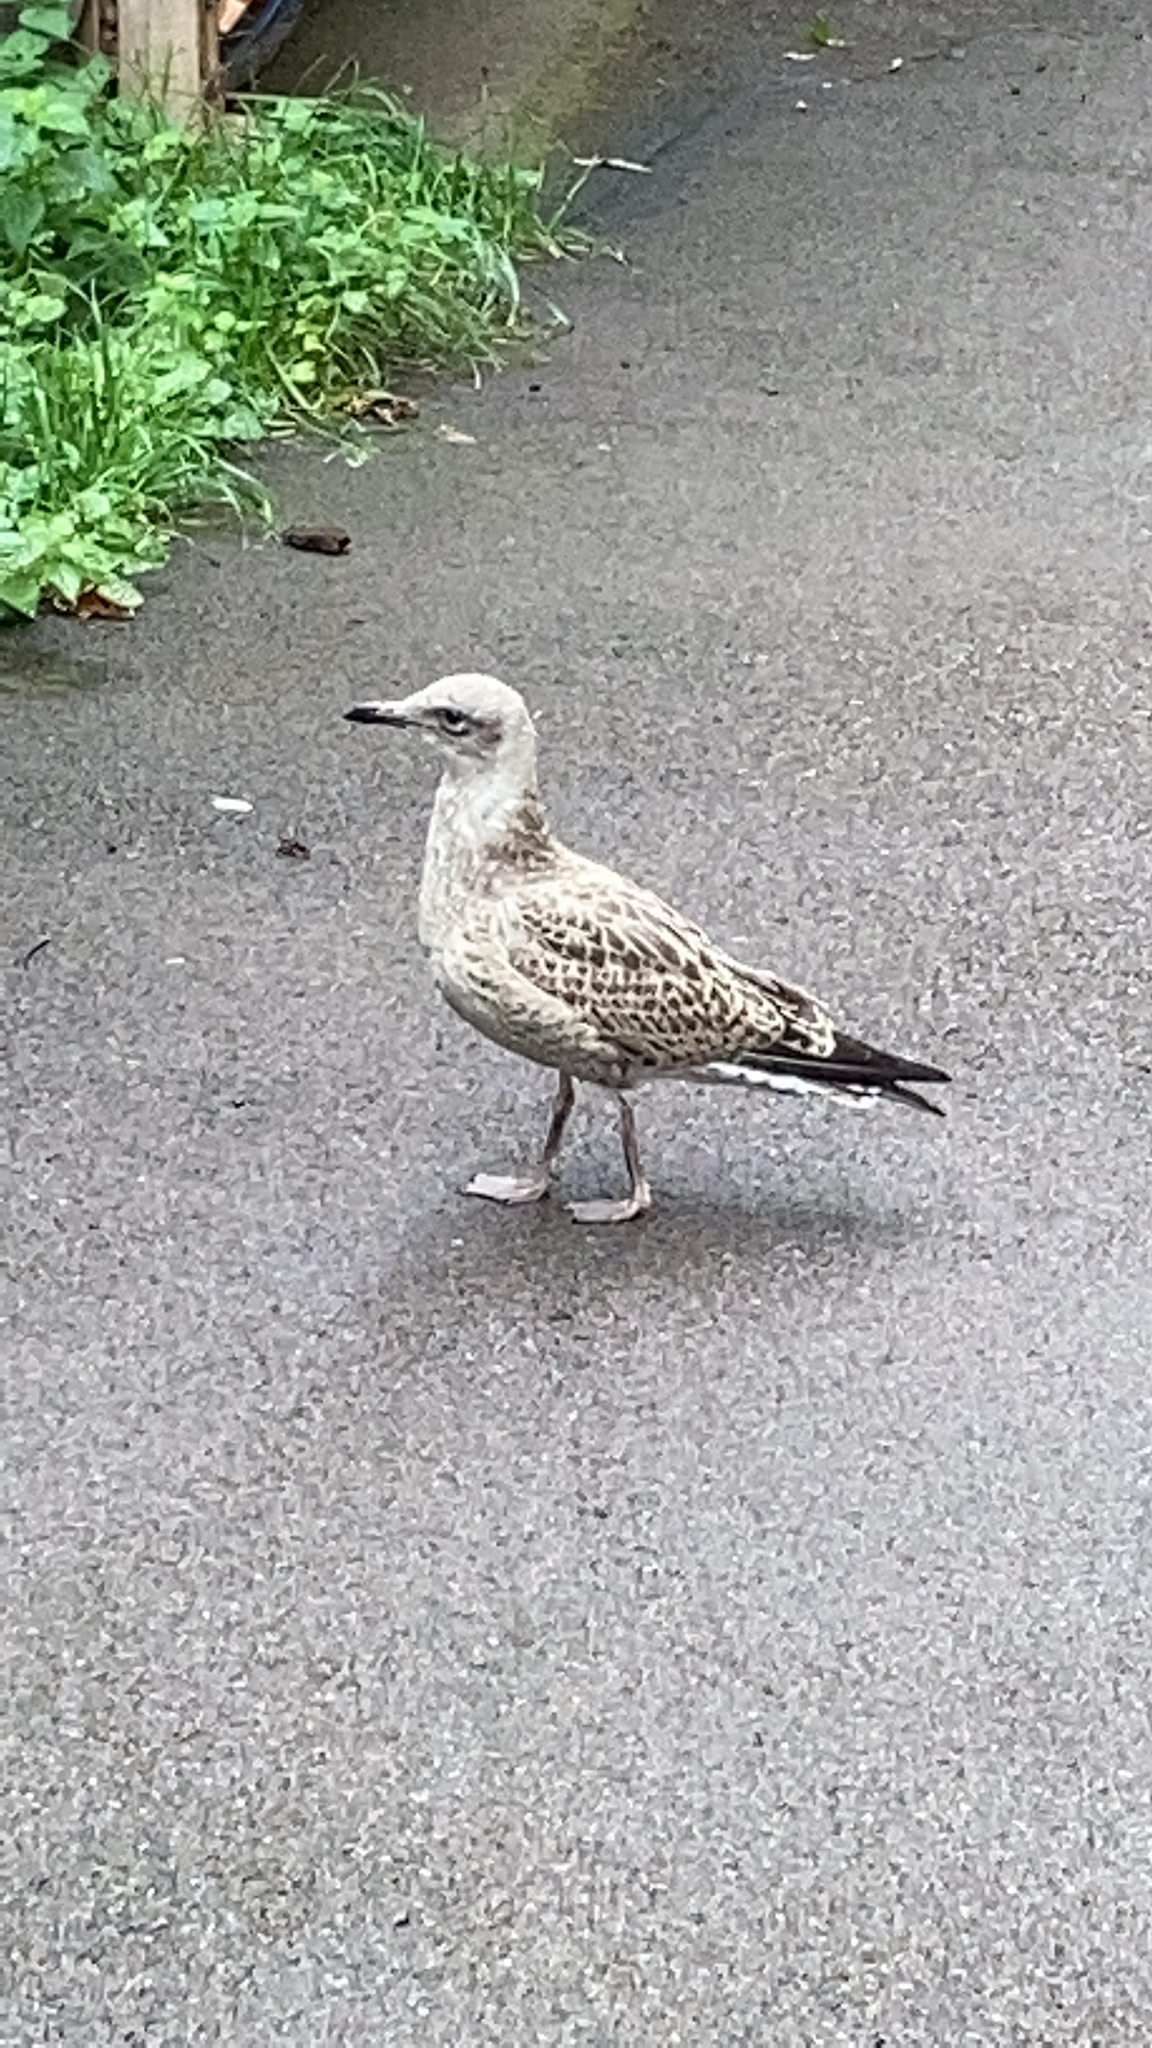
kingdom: Animalia
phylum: Chordata
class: Aves
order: Charadriiformes
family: Laridae
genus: Larus
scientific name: Larus argentatus
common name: Herring gull
